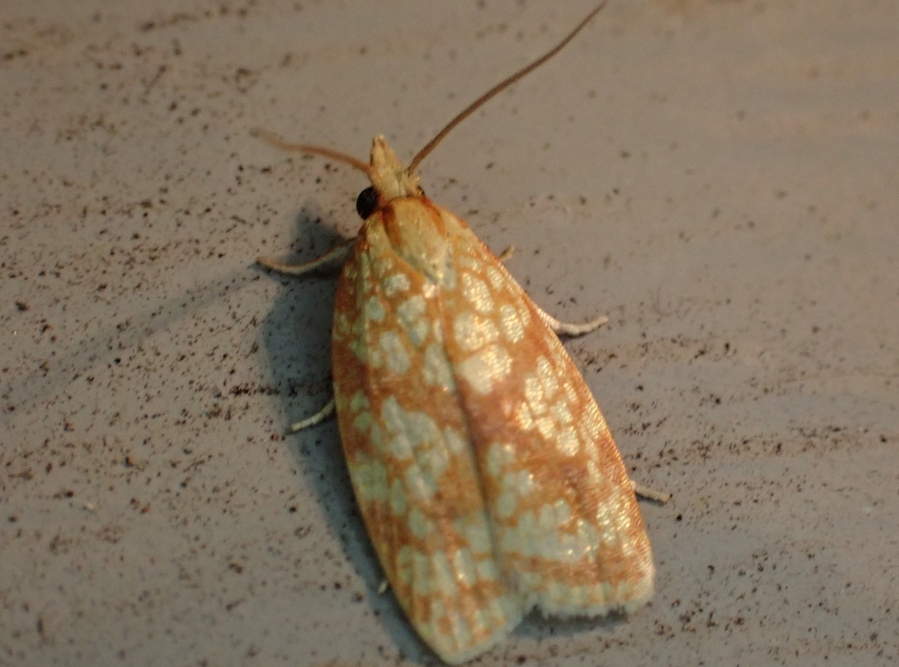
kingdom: Animalia
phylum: Arthropoda
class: Insecta
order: Lepidoptera
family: Tortricidae
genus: Sparganothis
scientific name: Sparganothis sulfureana
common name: Sparganothis fruitworm moth
